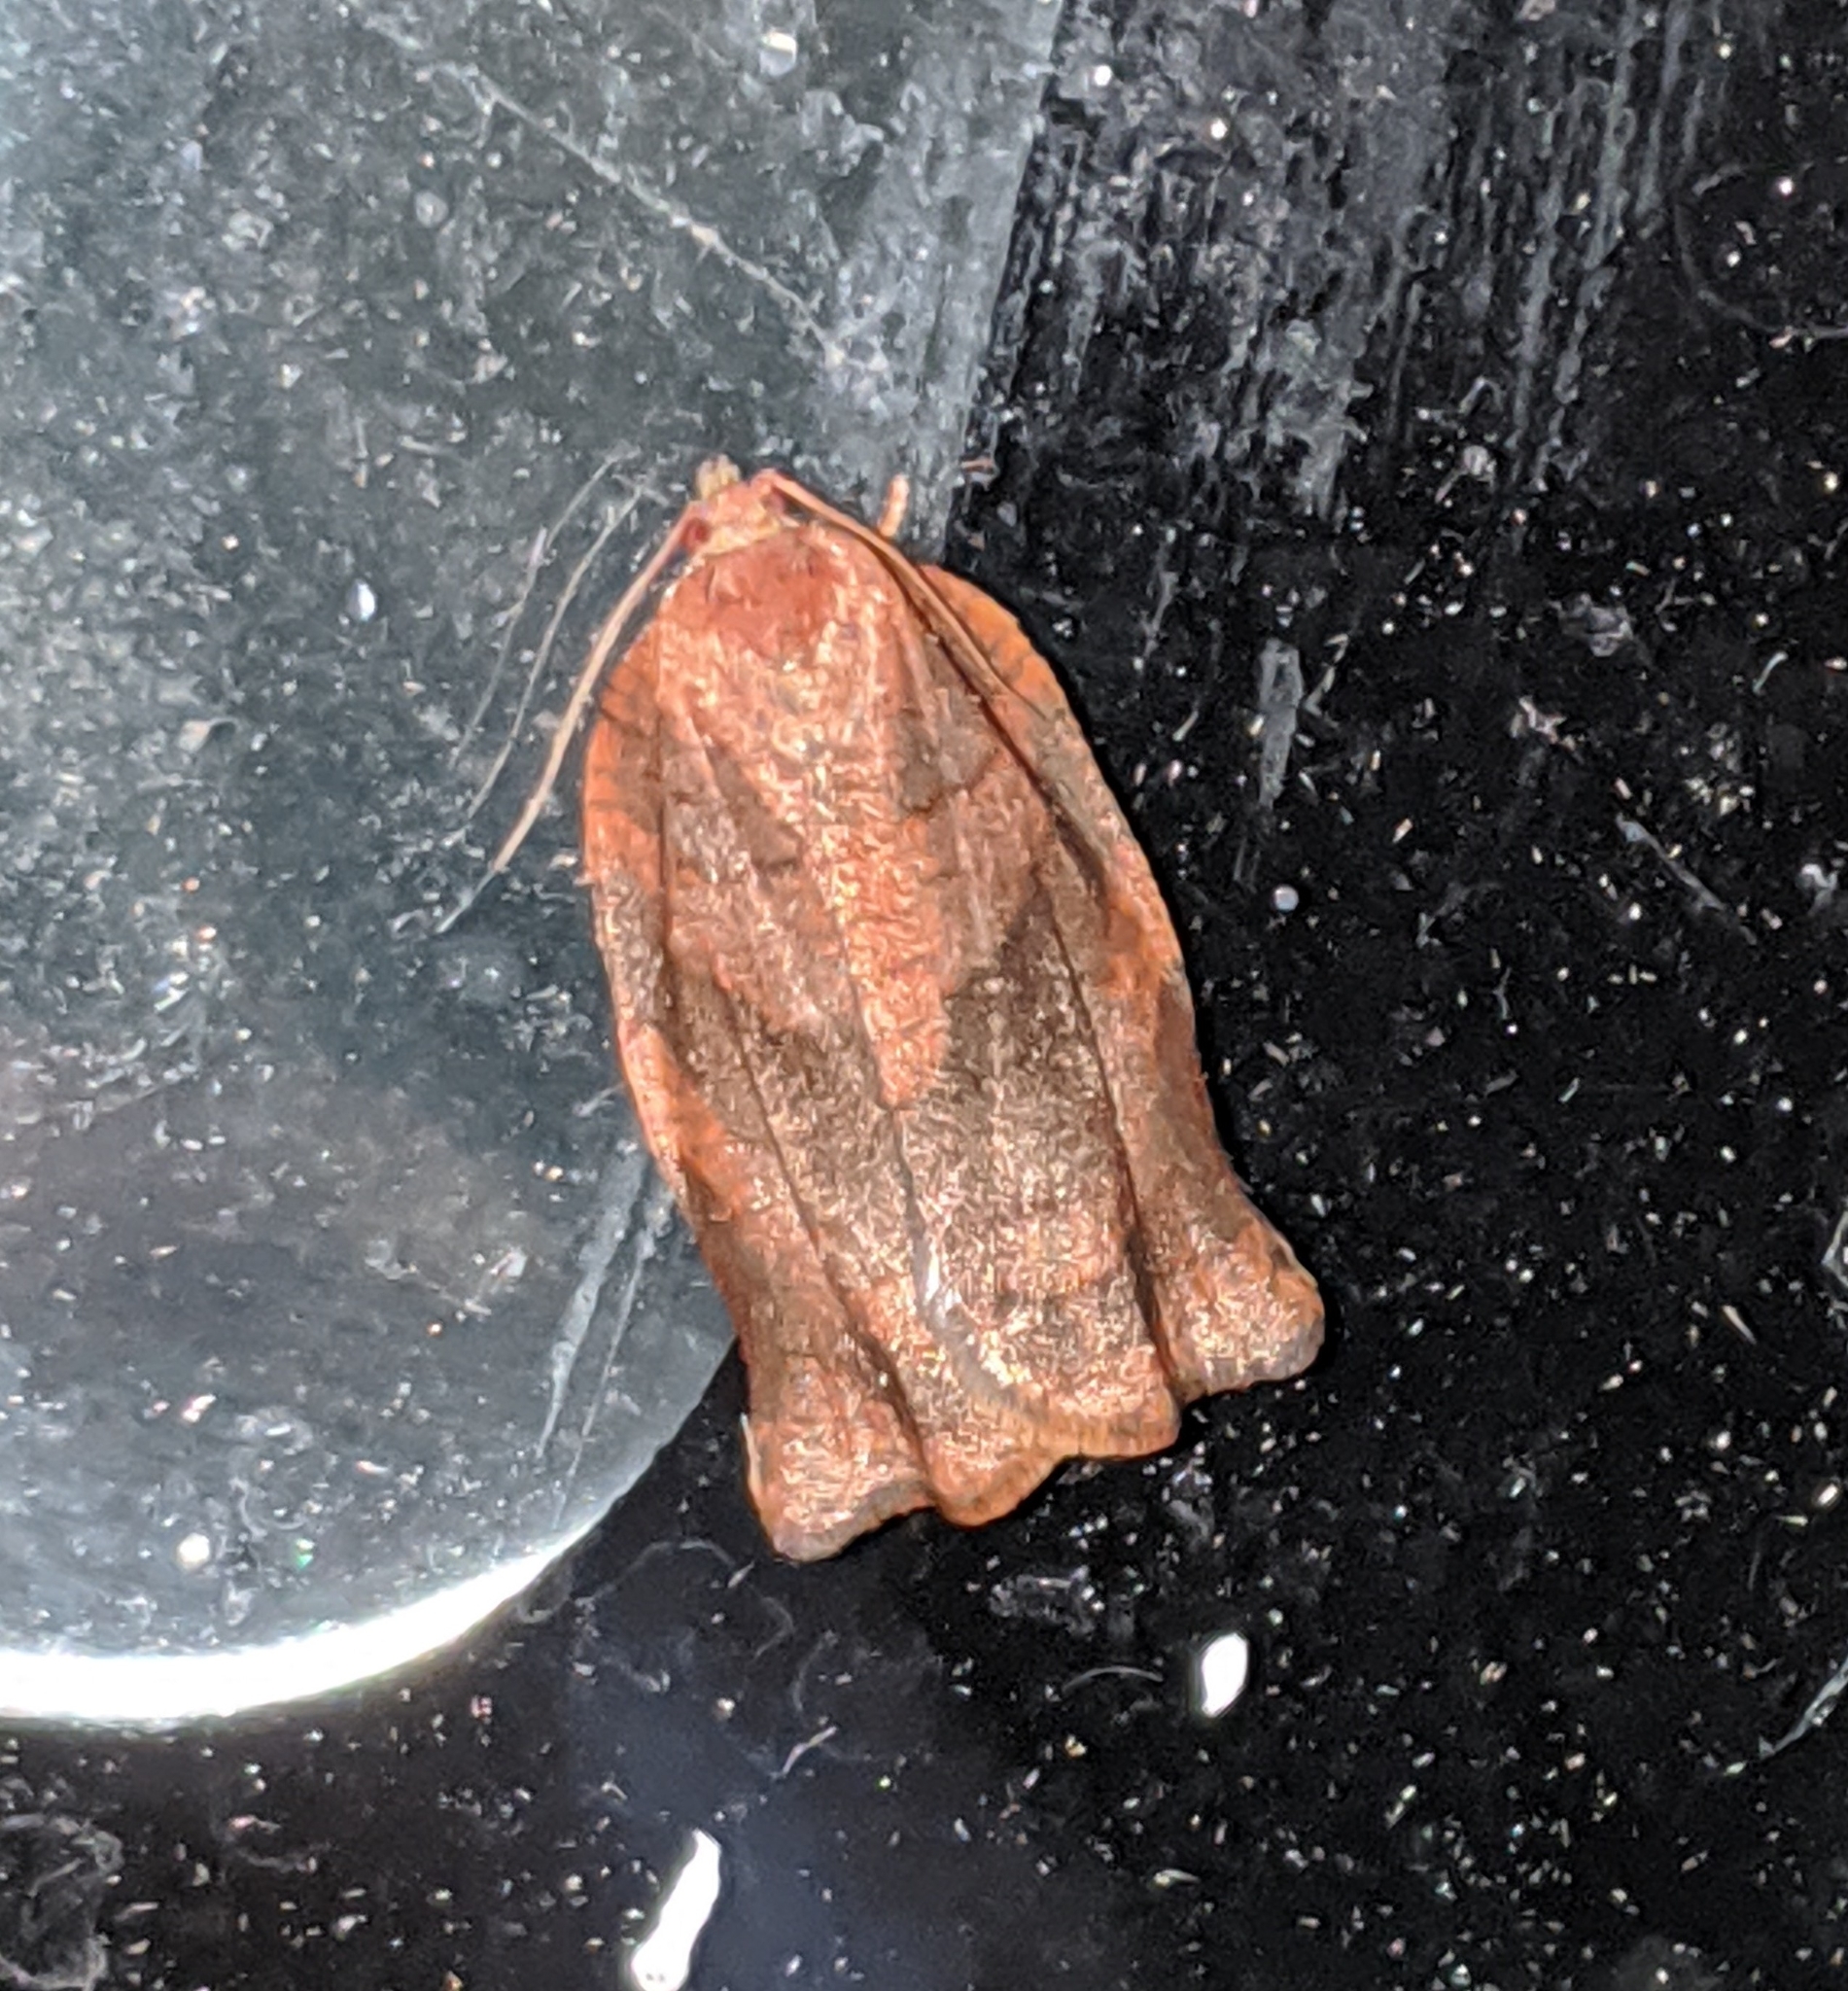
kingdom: Animalia
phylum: Arthropoda
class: Insecta
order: Lepidoptera
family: Tortricidae
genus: Choristoneura
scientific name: Choristoneura rosaceana
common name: Oblique-banded leafroller moth
